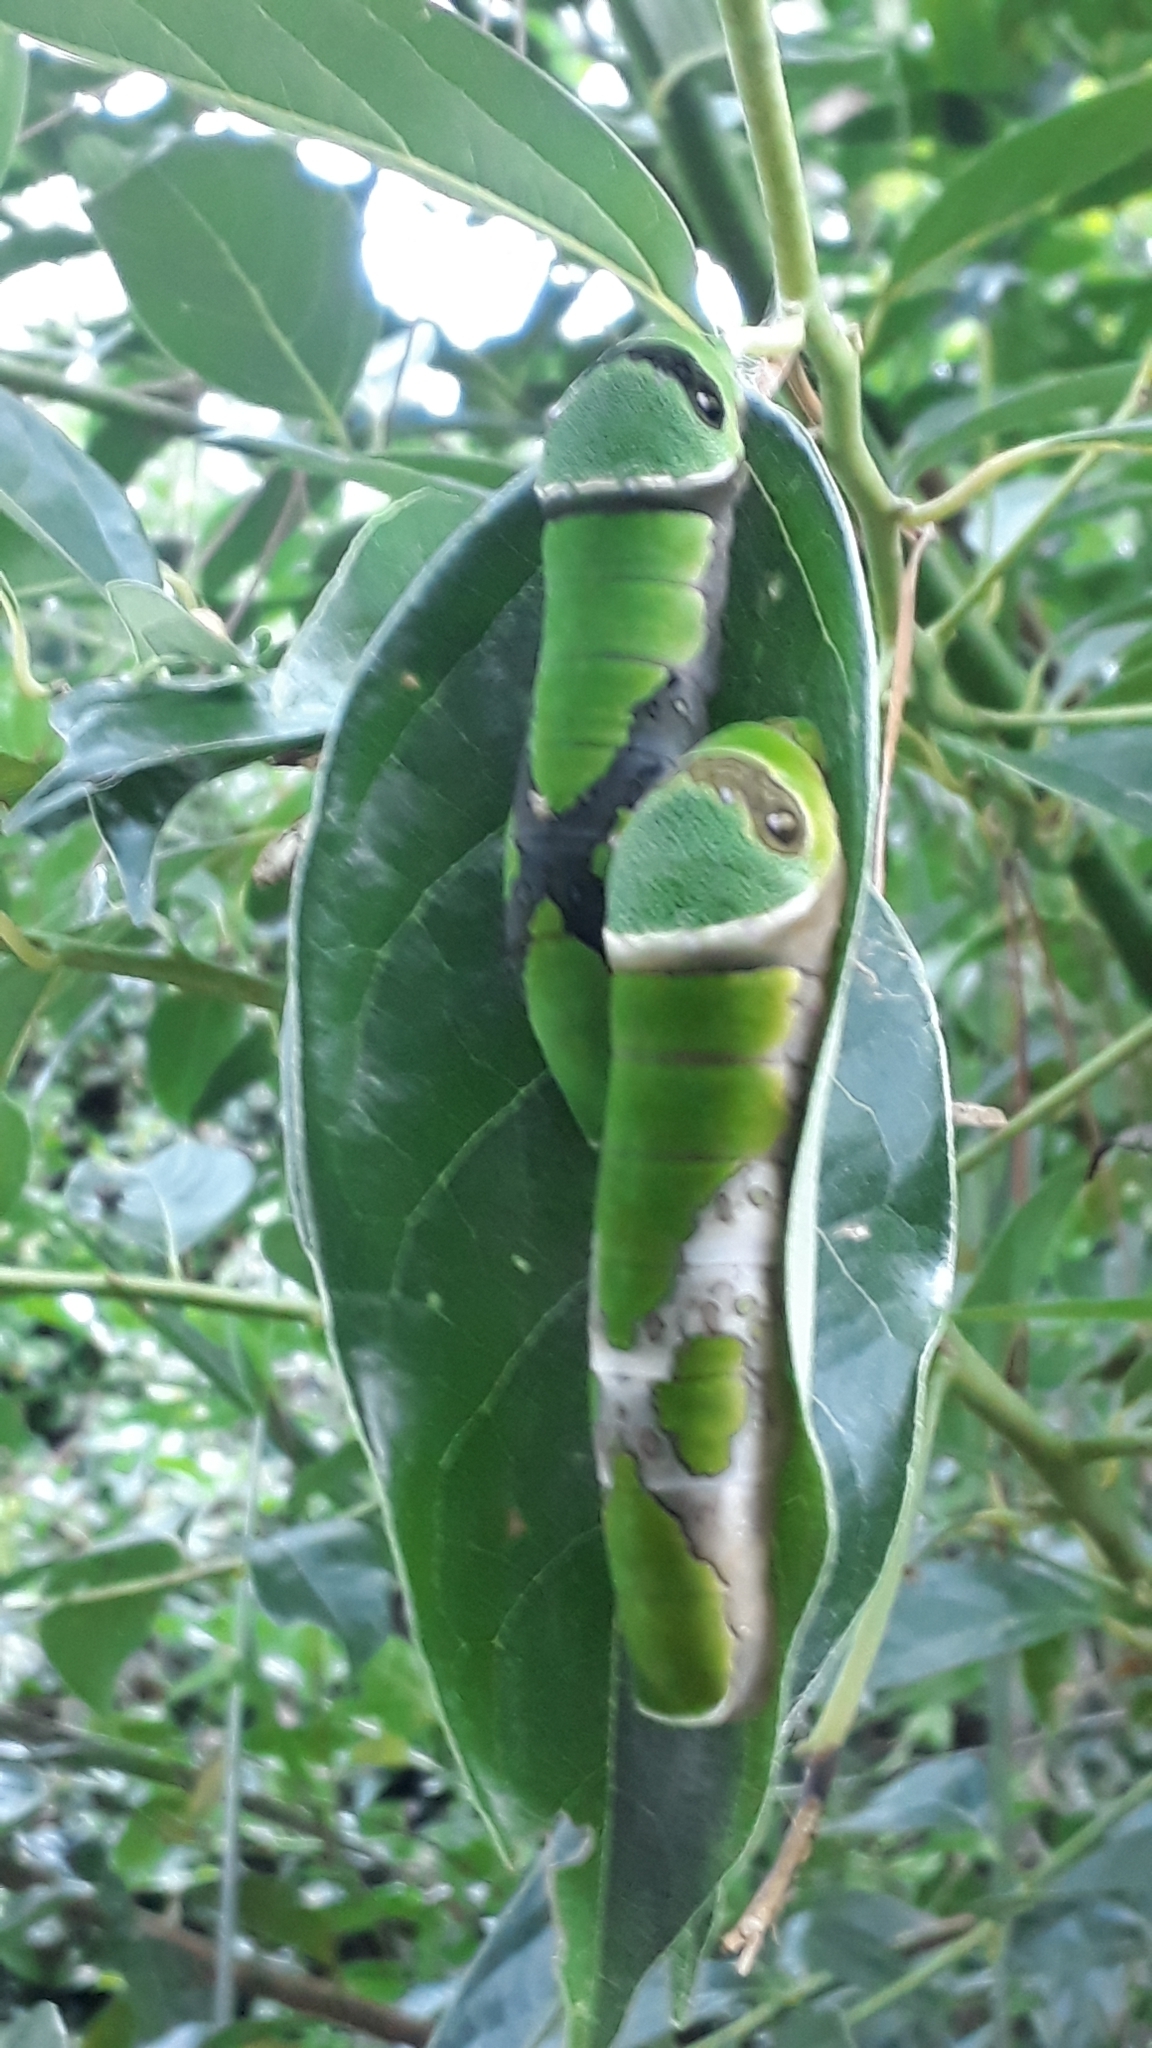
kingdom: Animalia
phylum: Arthropoda
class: Insecta
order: Lepidoptera
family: Papilionidae
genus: Papilio
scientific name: Papilio scamander
